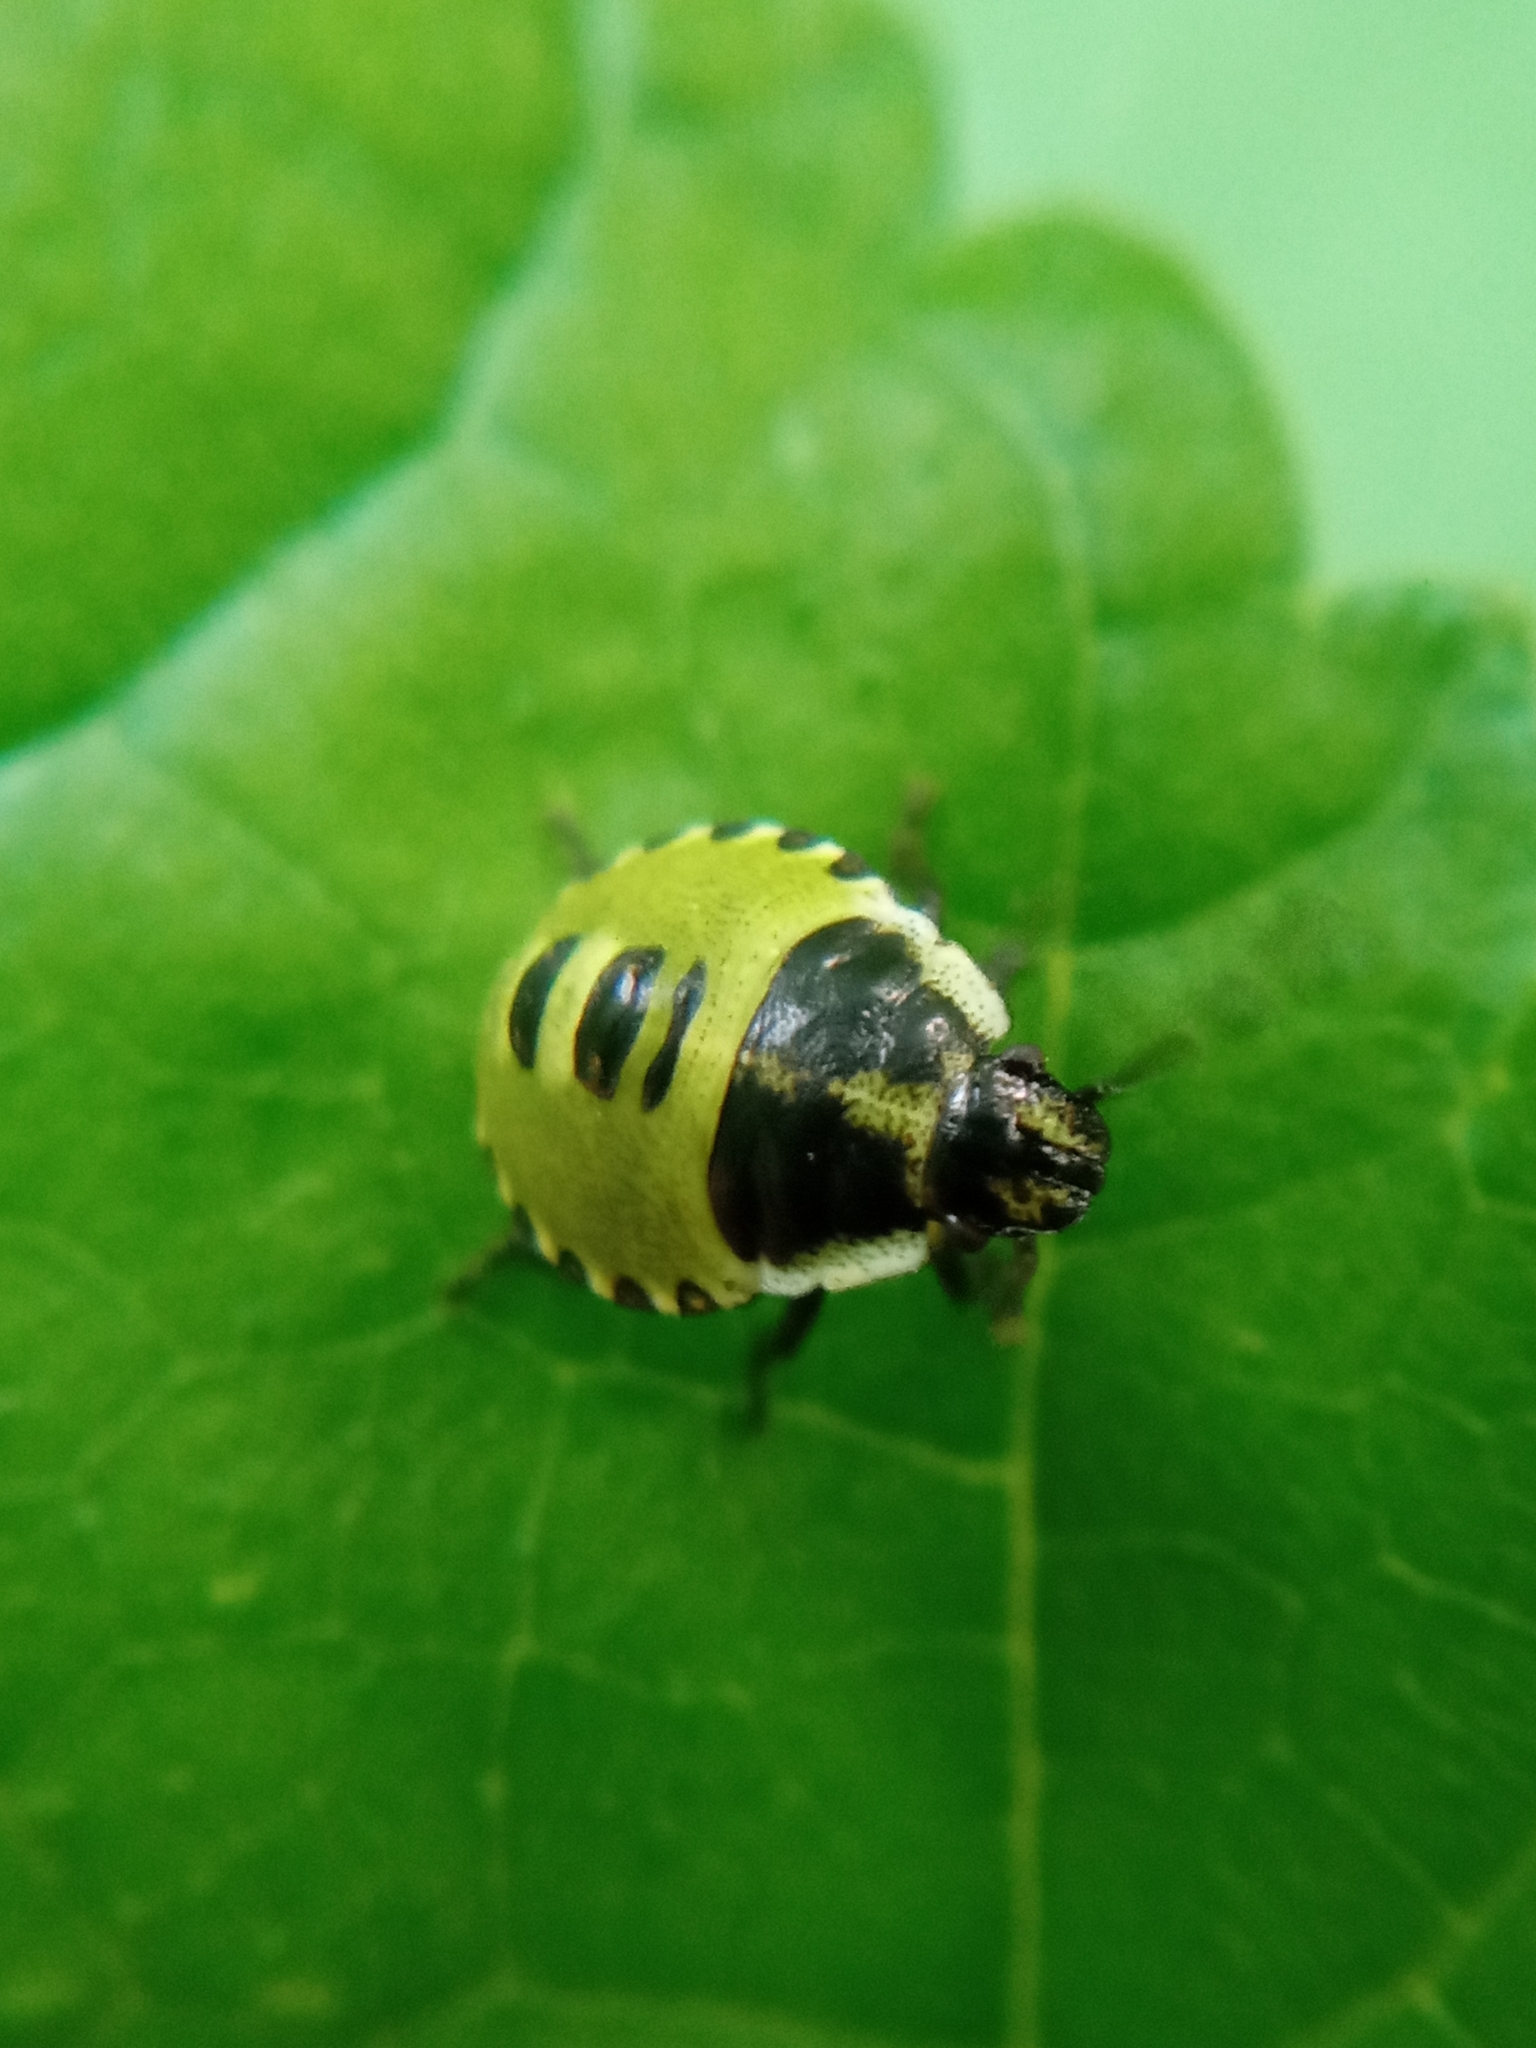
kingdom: Animalia
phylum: Arthropoda
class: Insecta
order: Hemiptera
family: Pentatomidae
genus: Palomena
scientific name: Palomena prasina
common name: Green shieldbug
